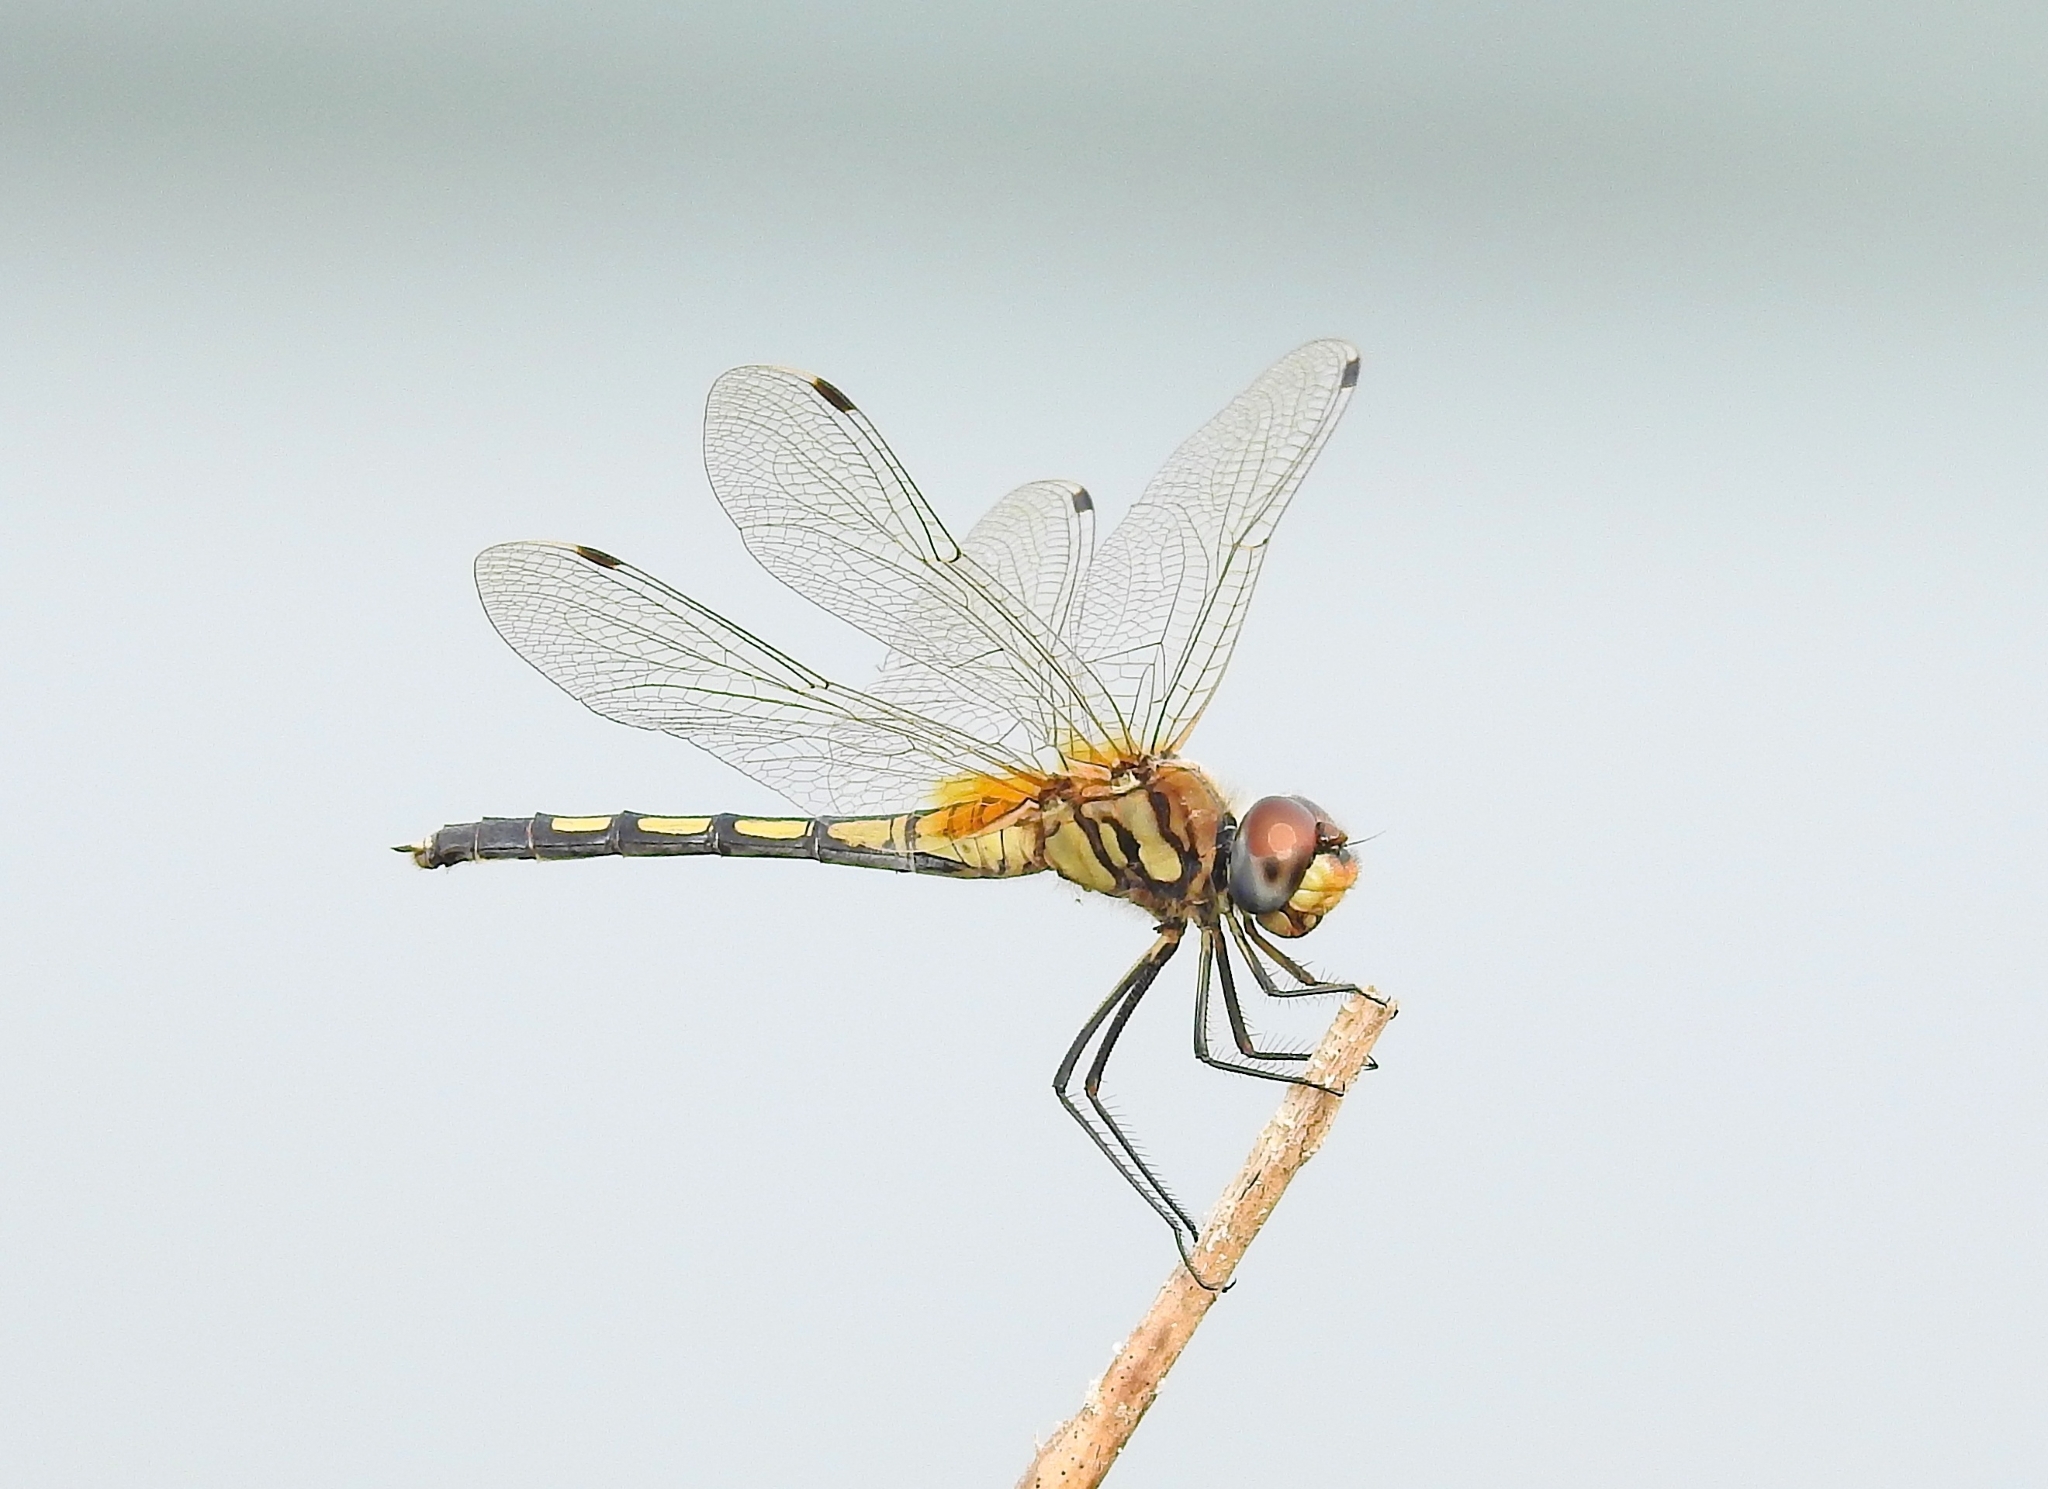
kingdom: Animalia
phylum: Arthropoda
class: Insecta
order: Odonata
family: Libellulidae
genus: Trithemis
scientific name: Trithemis pallidinervis
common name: Dancing dropwing
